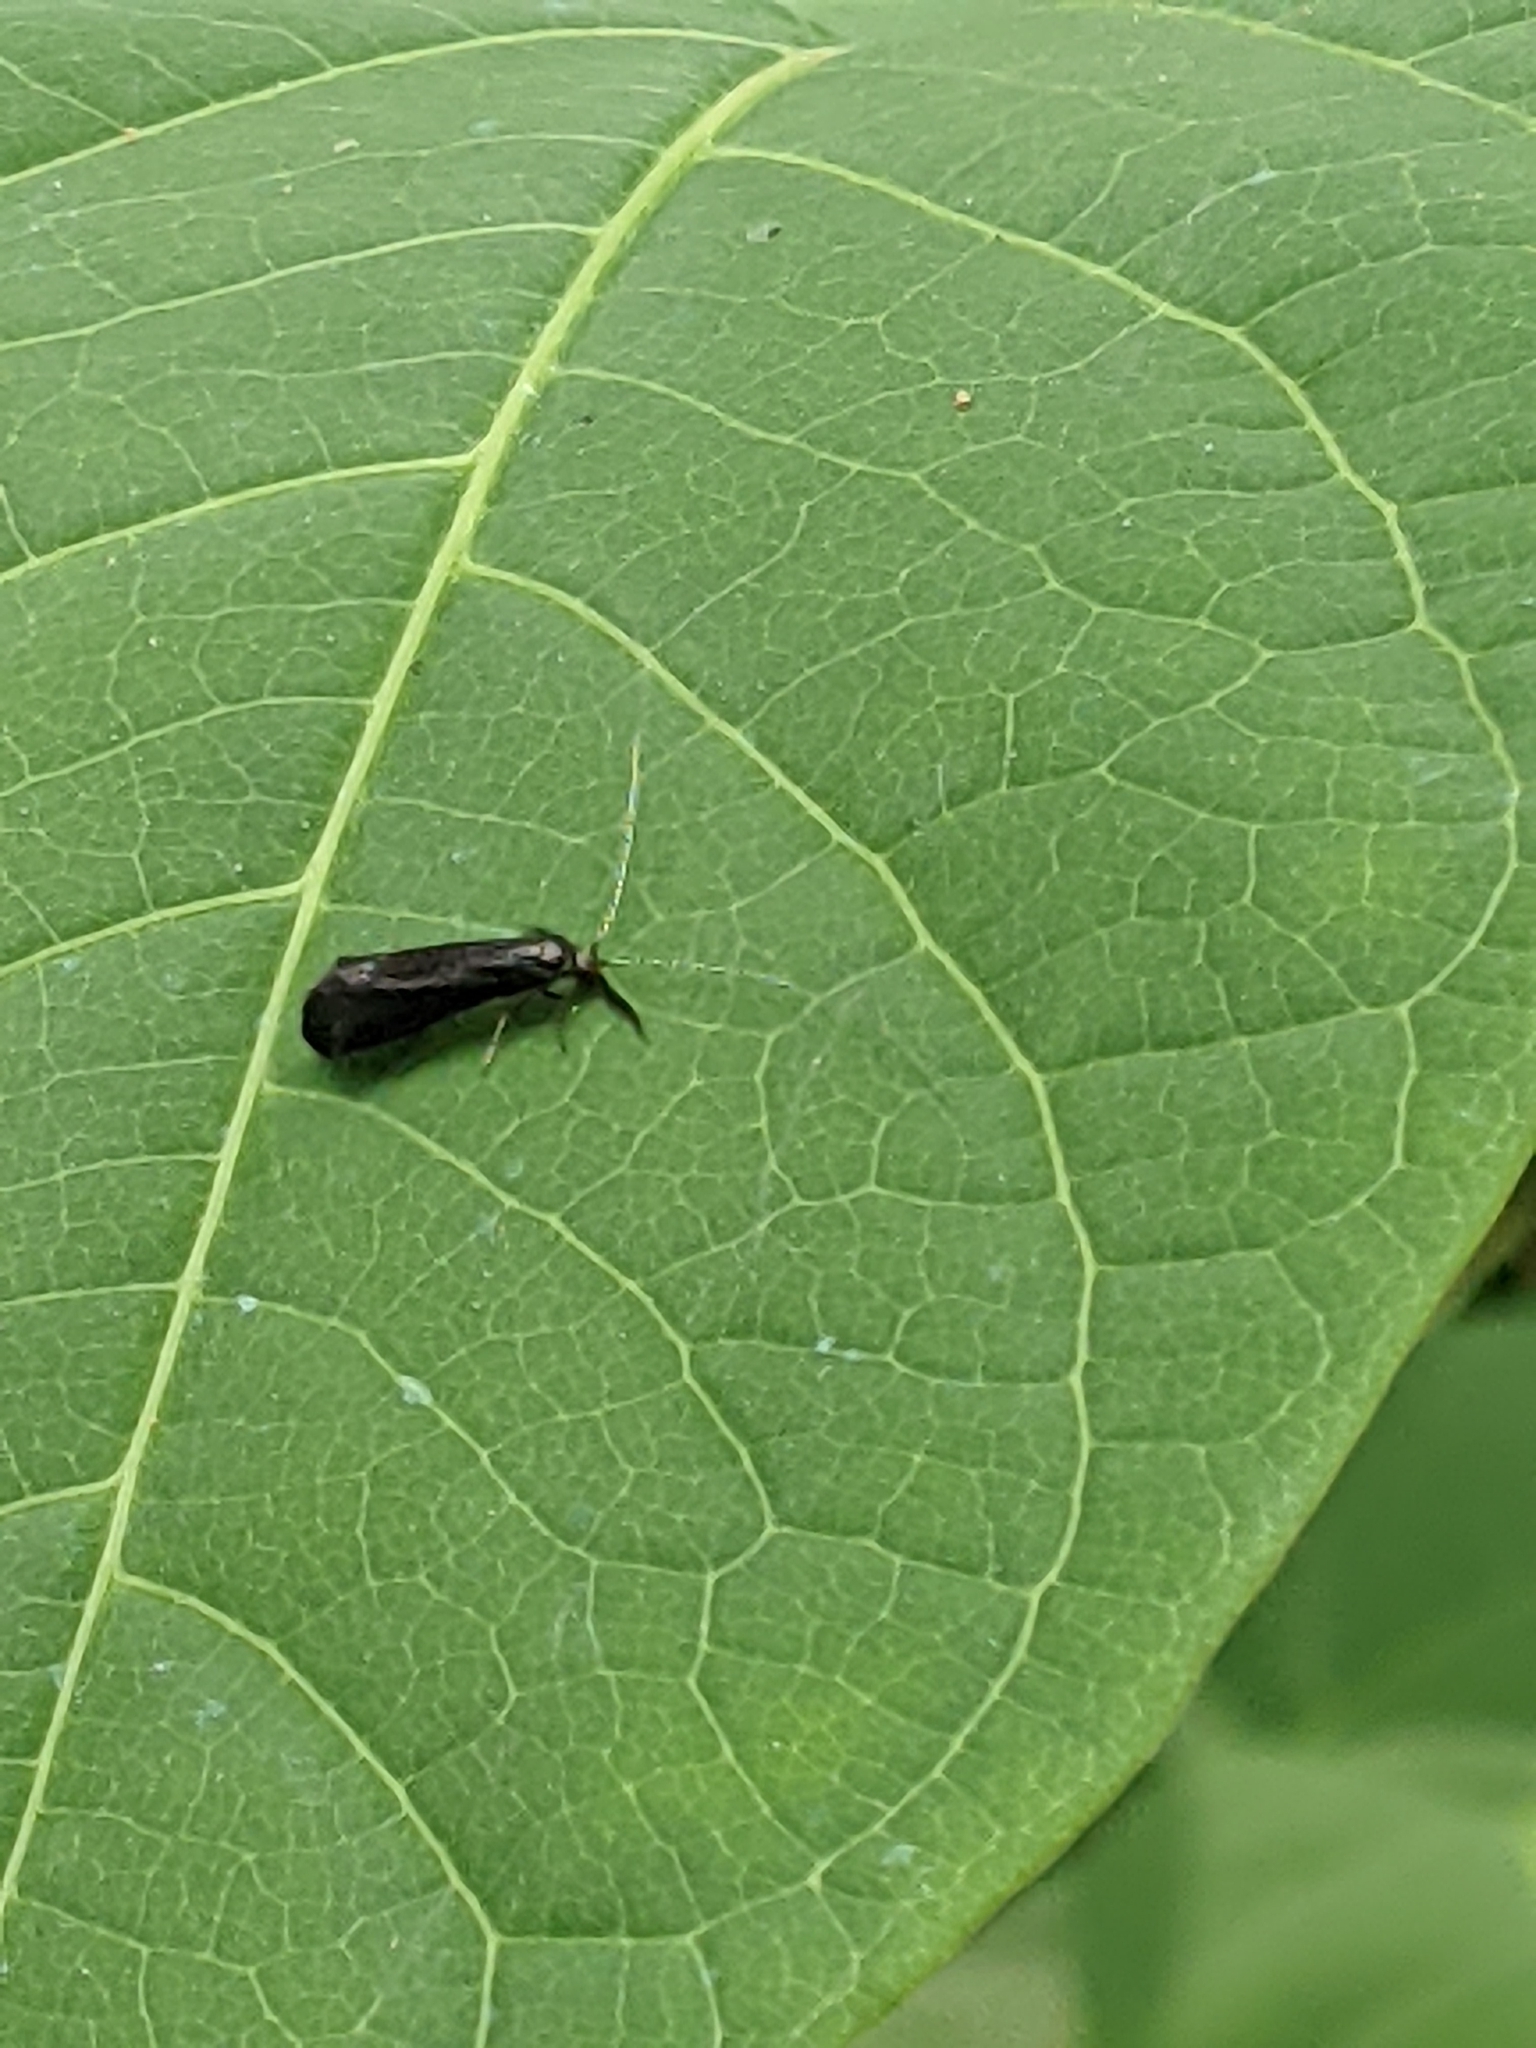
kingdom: Animalia
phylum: Arthropoda
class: Insecta
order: Trichoptera
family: Leptoceridae
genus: Mystacides
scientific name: Mystacides sepulchralis
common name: Black dancer caddisfly
